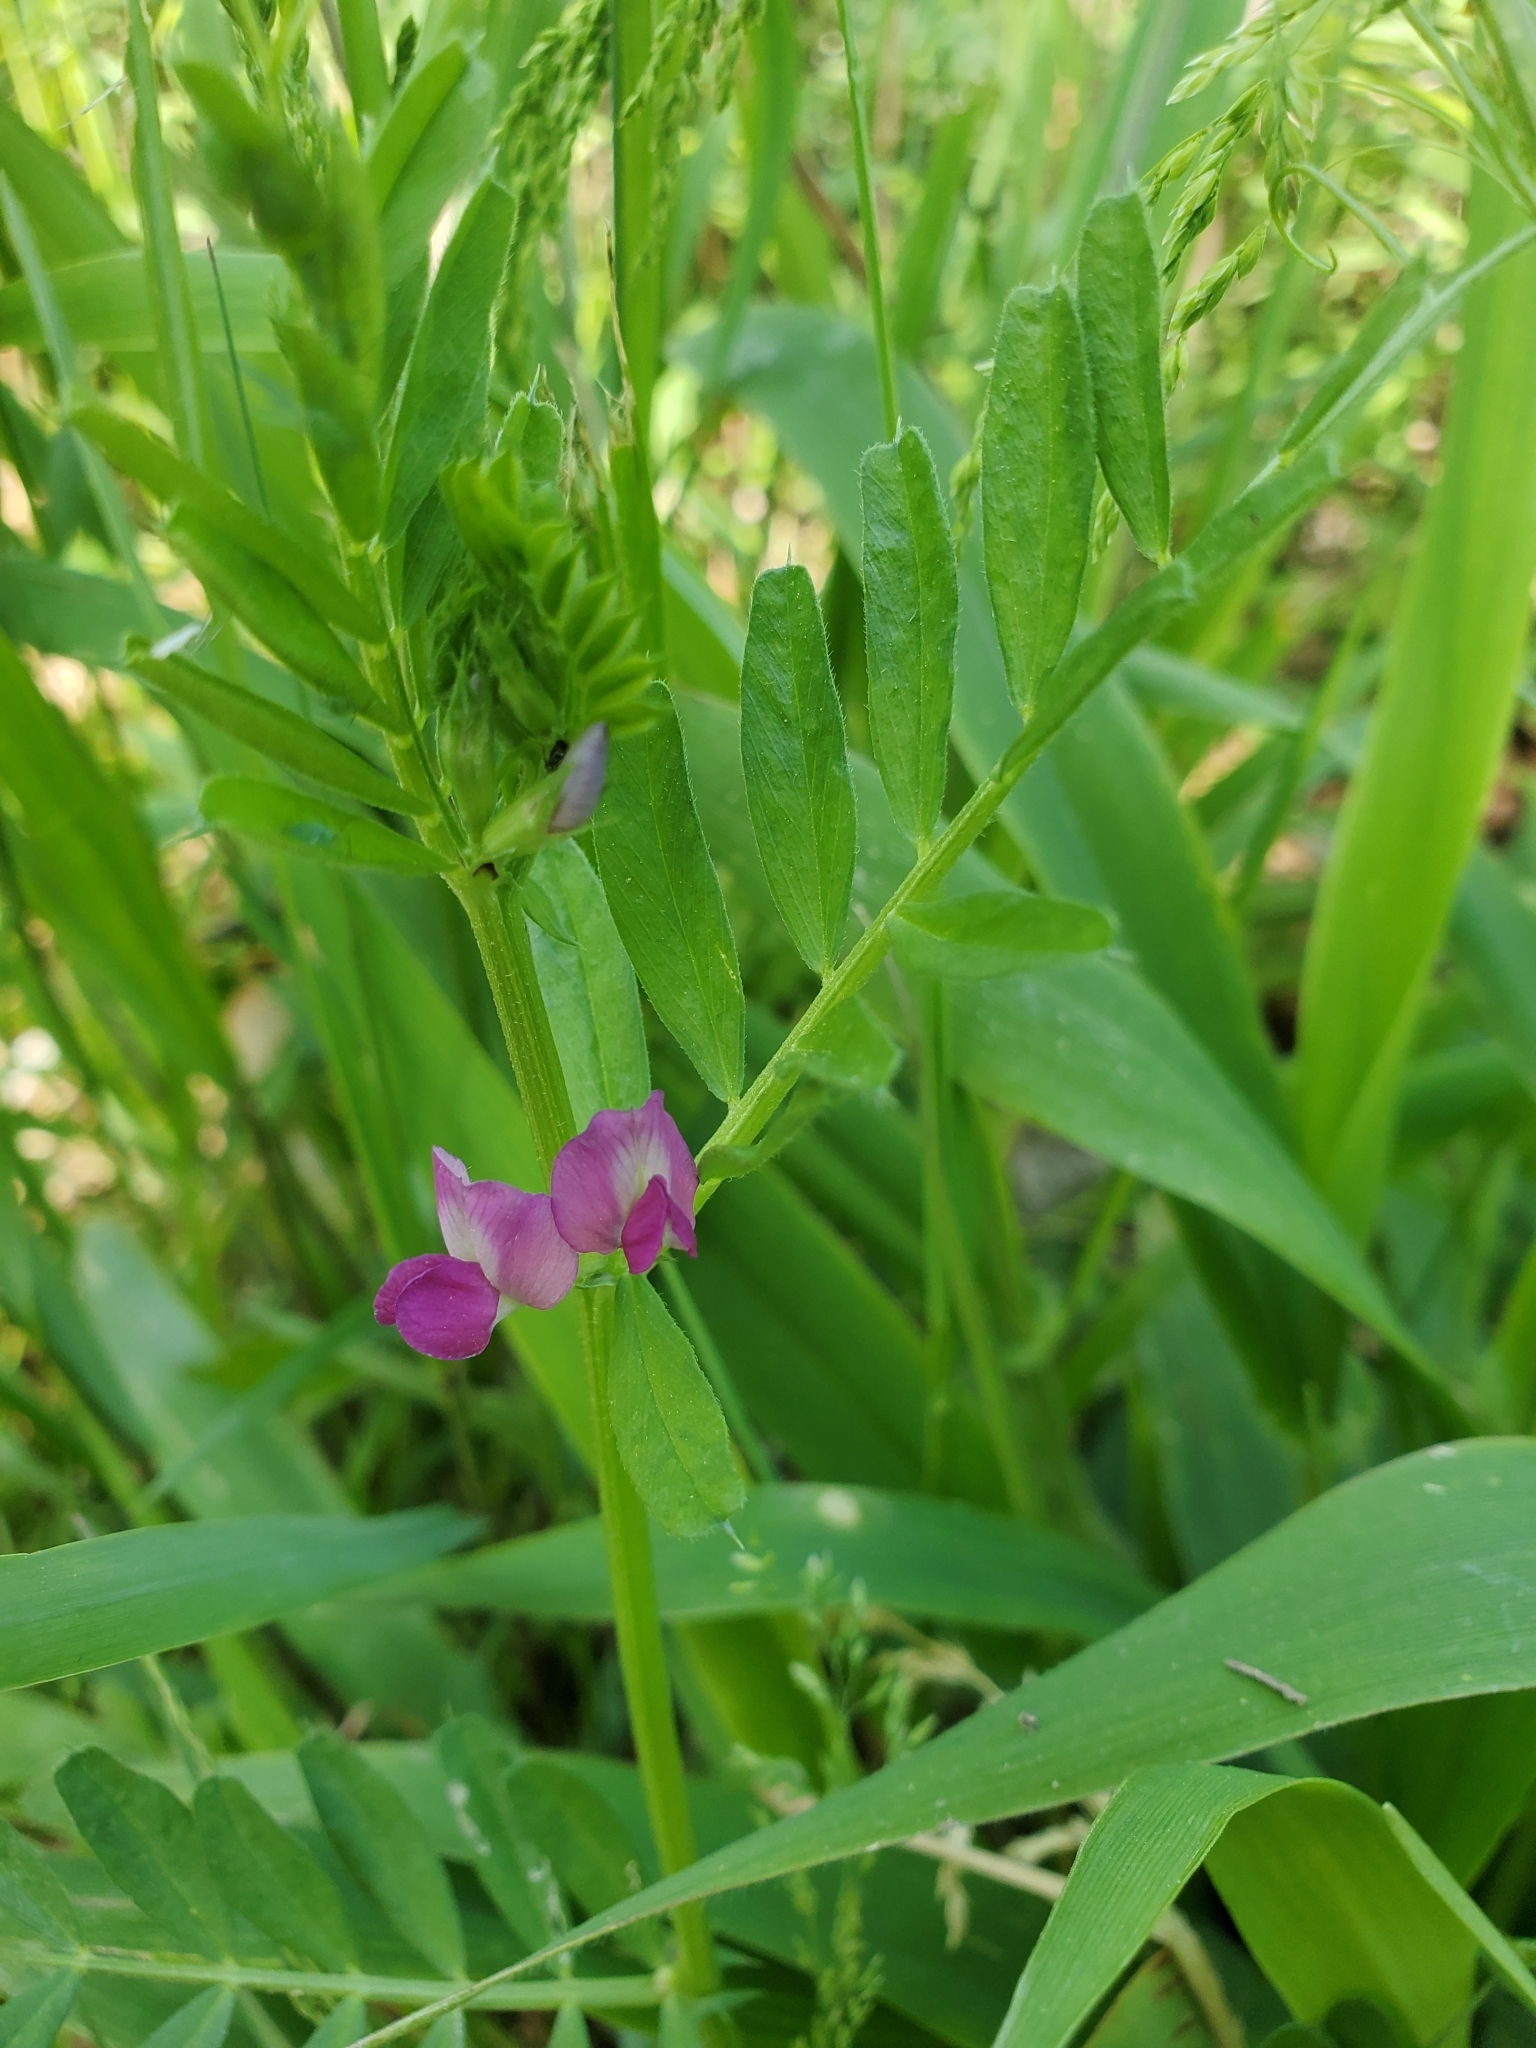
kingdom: Plantae
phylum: Tracheophyta
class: Magnoliopsida
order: Fabales
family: Fabaceae
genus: Vicia
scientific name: Vicia sativa
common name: Garden vetch
